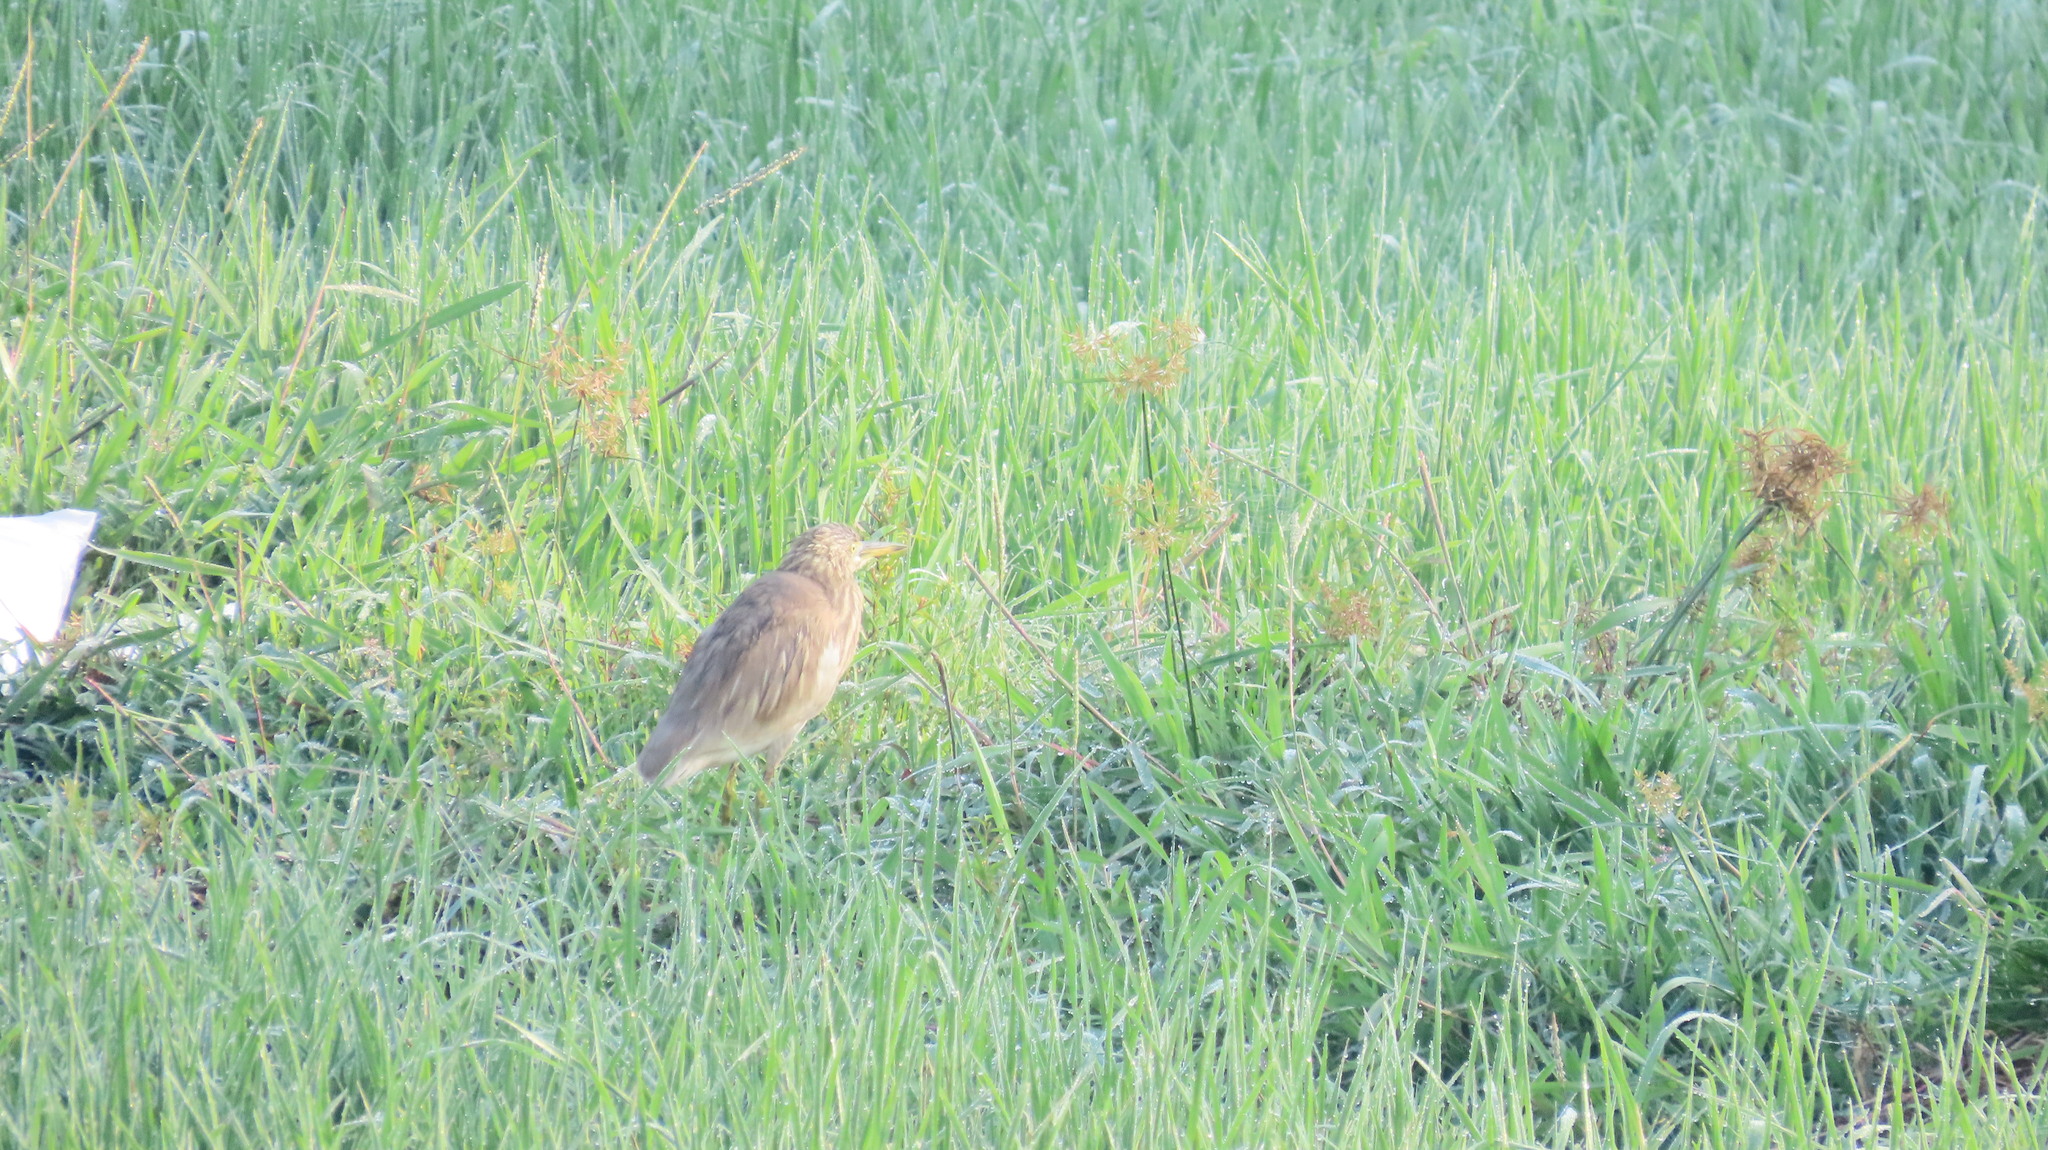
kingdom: Animalia
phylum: Chordata
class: Aves
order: Pelecaniformes
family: Ardeidae
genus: Ardeola
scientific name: Ardeola grayii
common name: Indian pond heron
